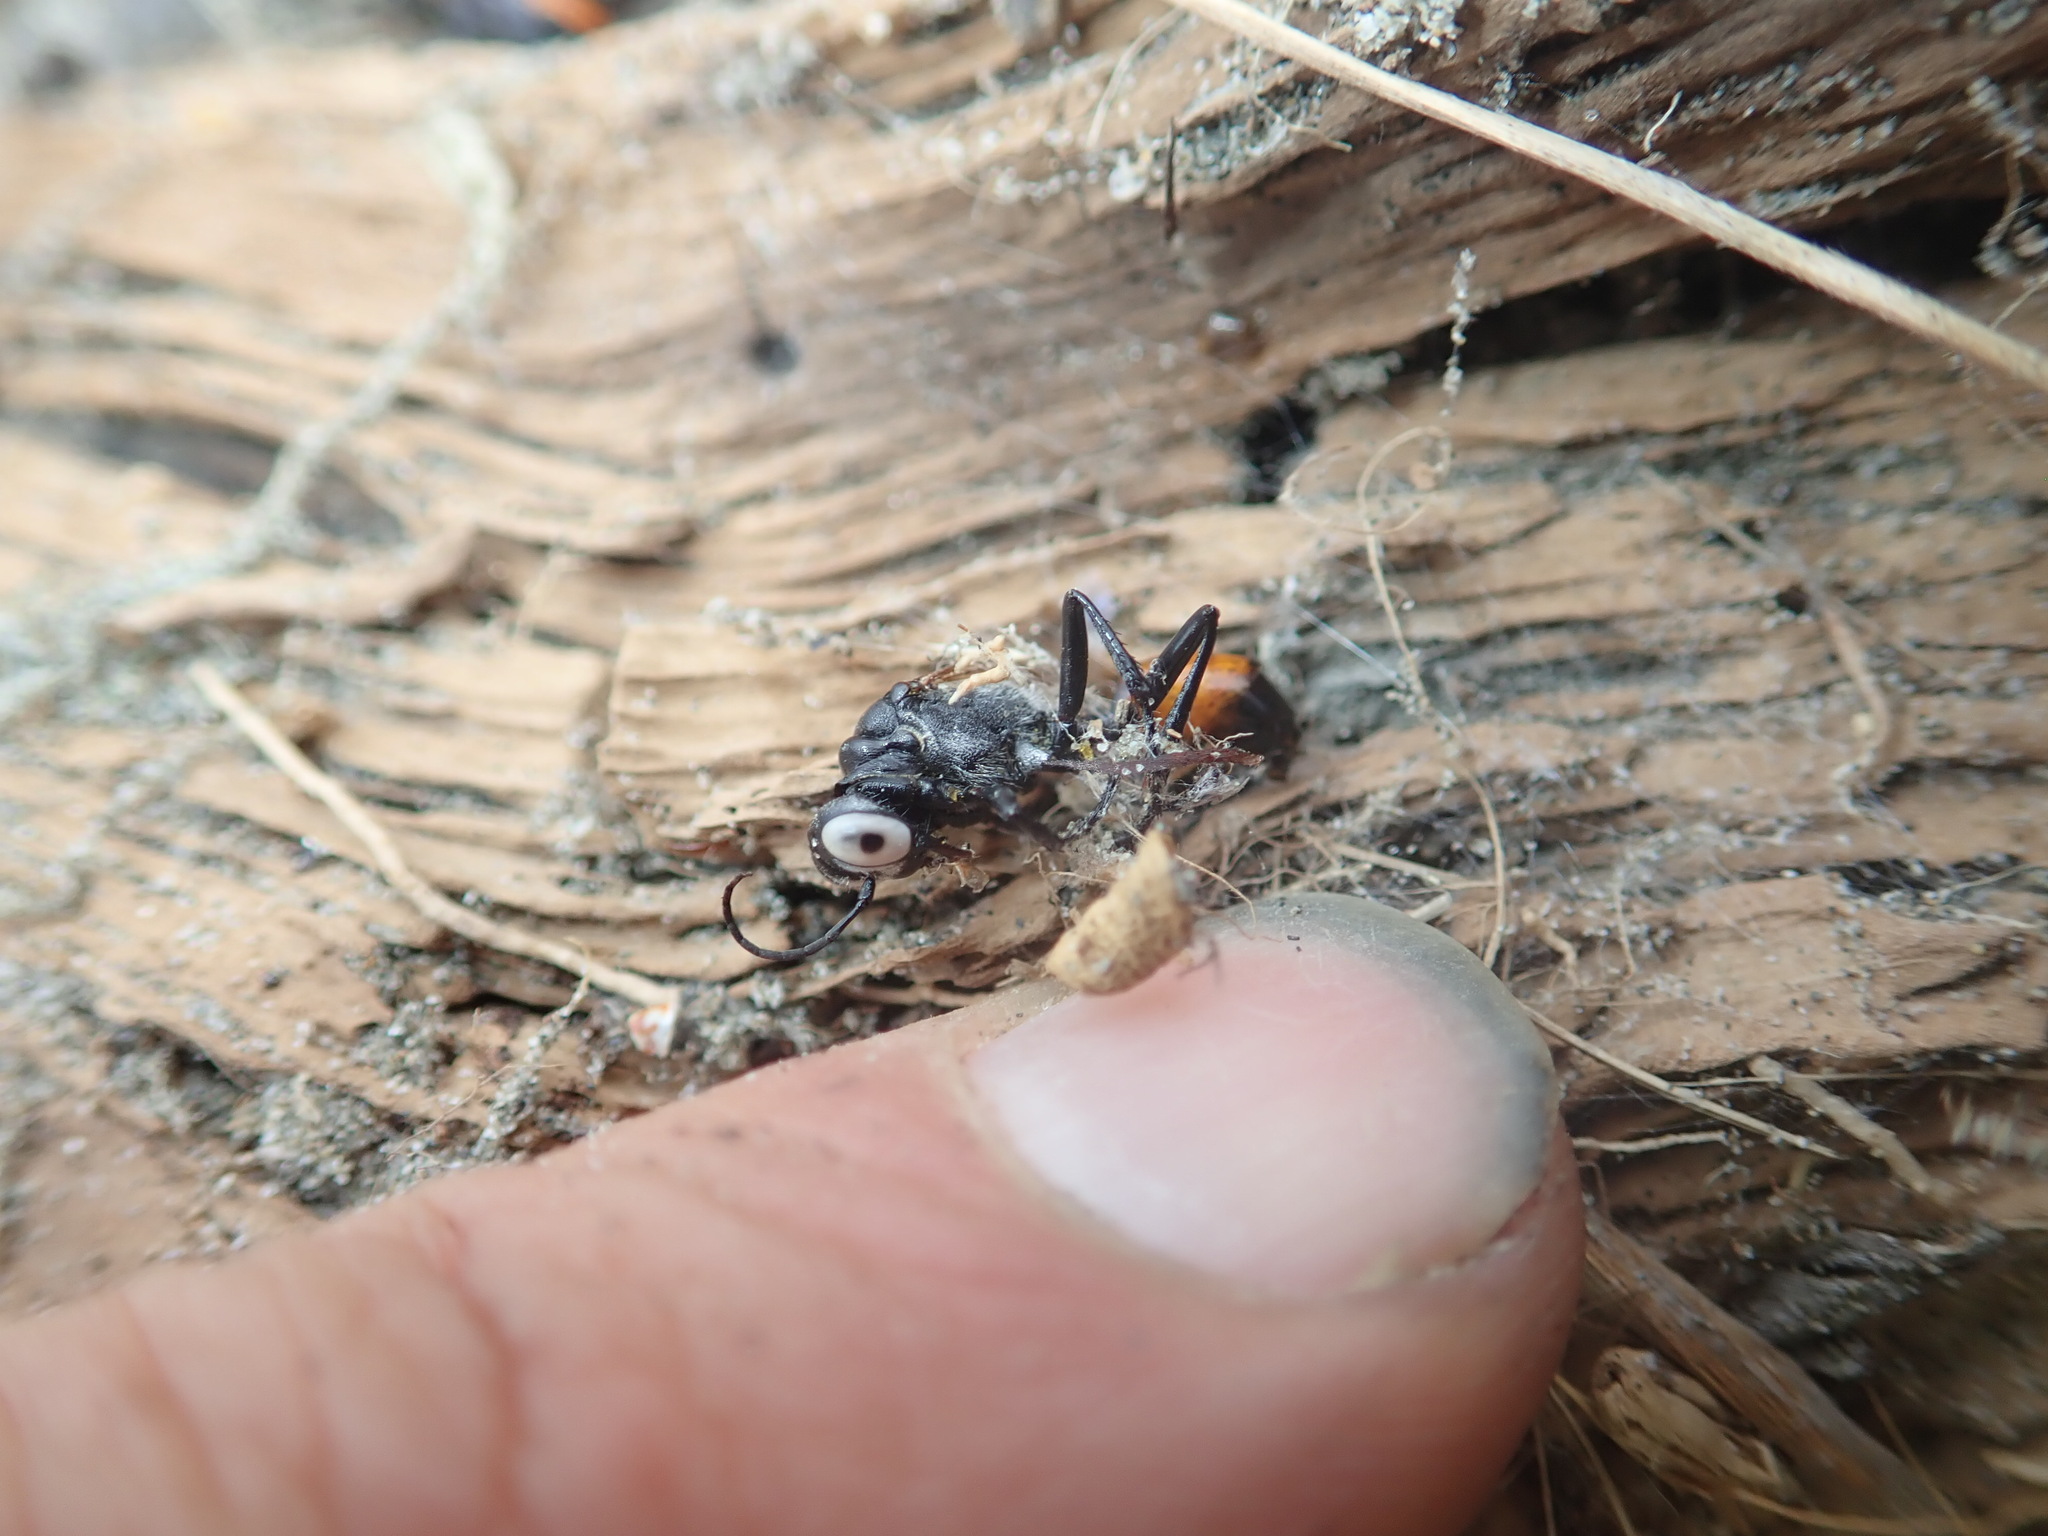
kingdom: Animalia
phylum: Arthropoda
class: Arachnida
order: Araneae
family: Theridiidae
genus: Latrodectus
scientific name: Latrodectus katipo
